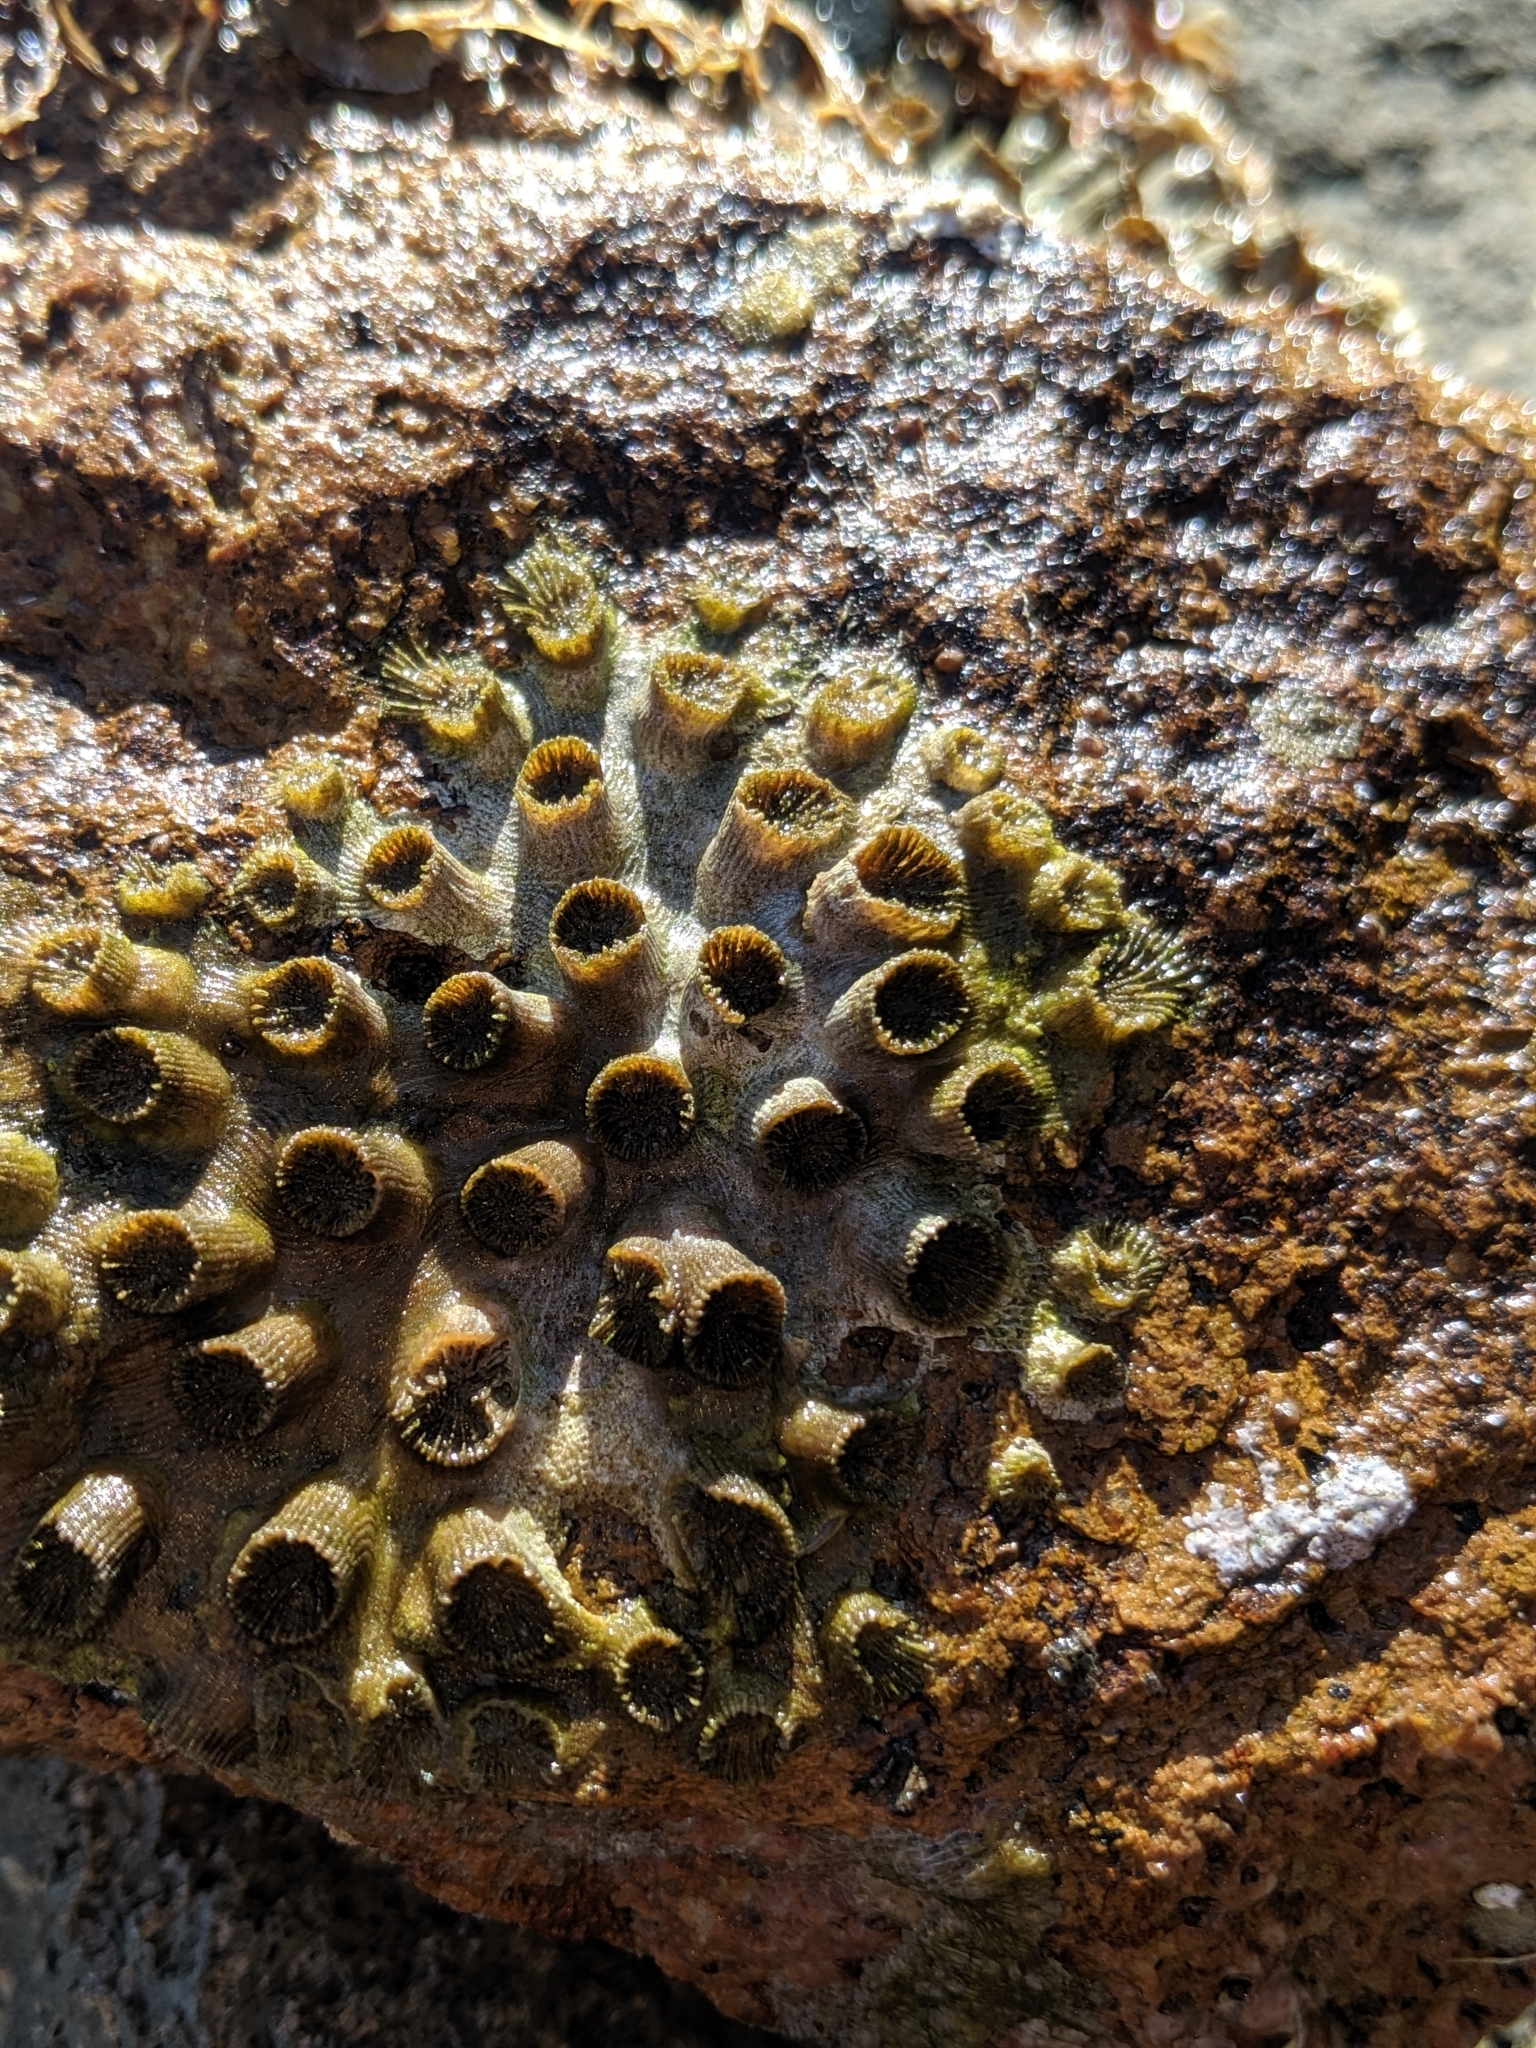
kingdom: Animalia
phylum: Cnidaria
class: Anthozoa
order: Scleractinia
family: Astrangiidae
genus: Astrangia
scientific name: Astrangia haimei
